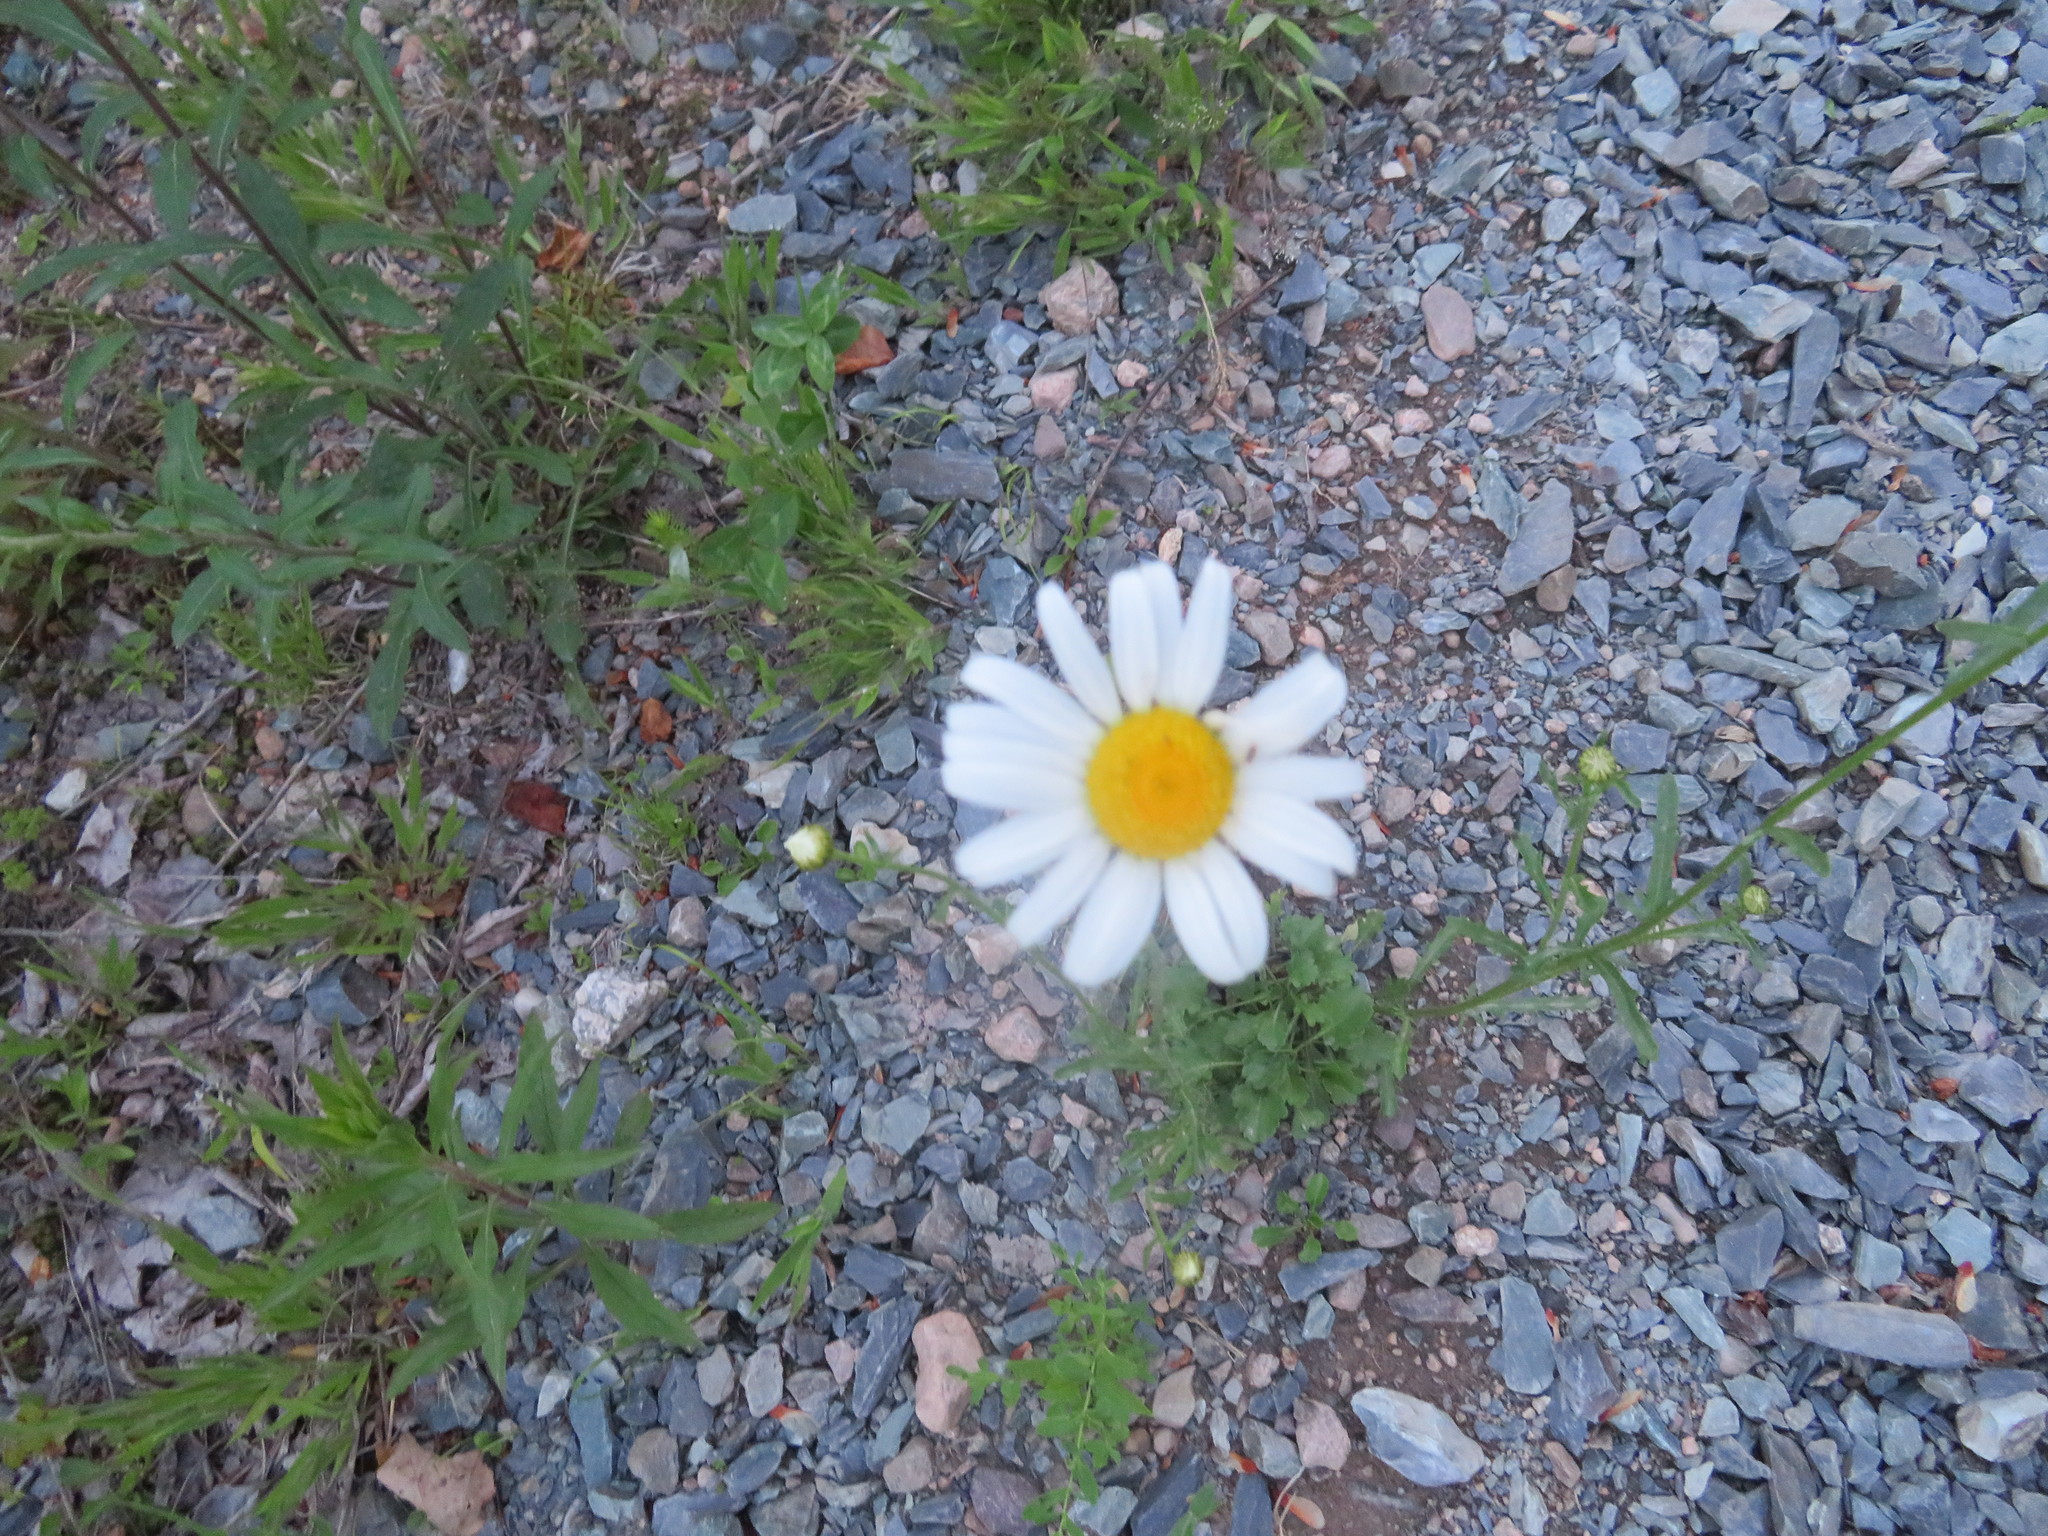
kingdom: Plantae
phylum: Tracheophyta
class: Magnoliopsida
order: Asterales
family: Asteraceae
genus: Leucanthemum
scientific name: Leucanthemum vulgare
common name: Oxeye daisy
